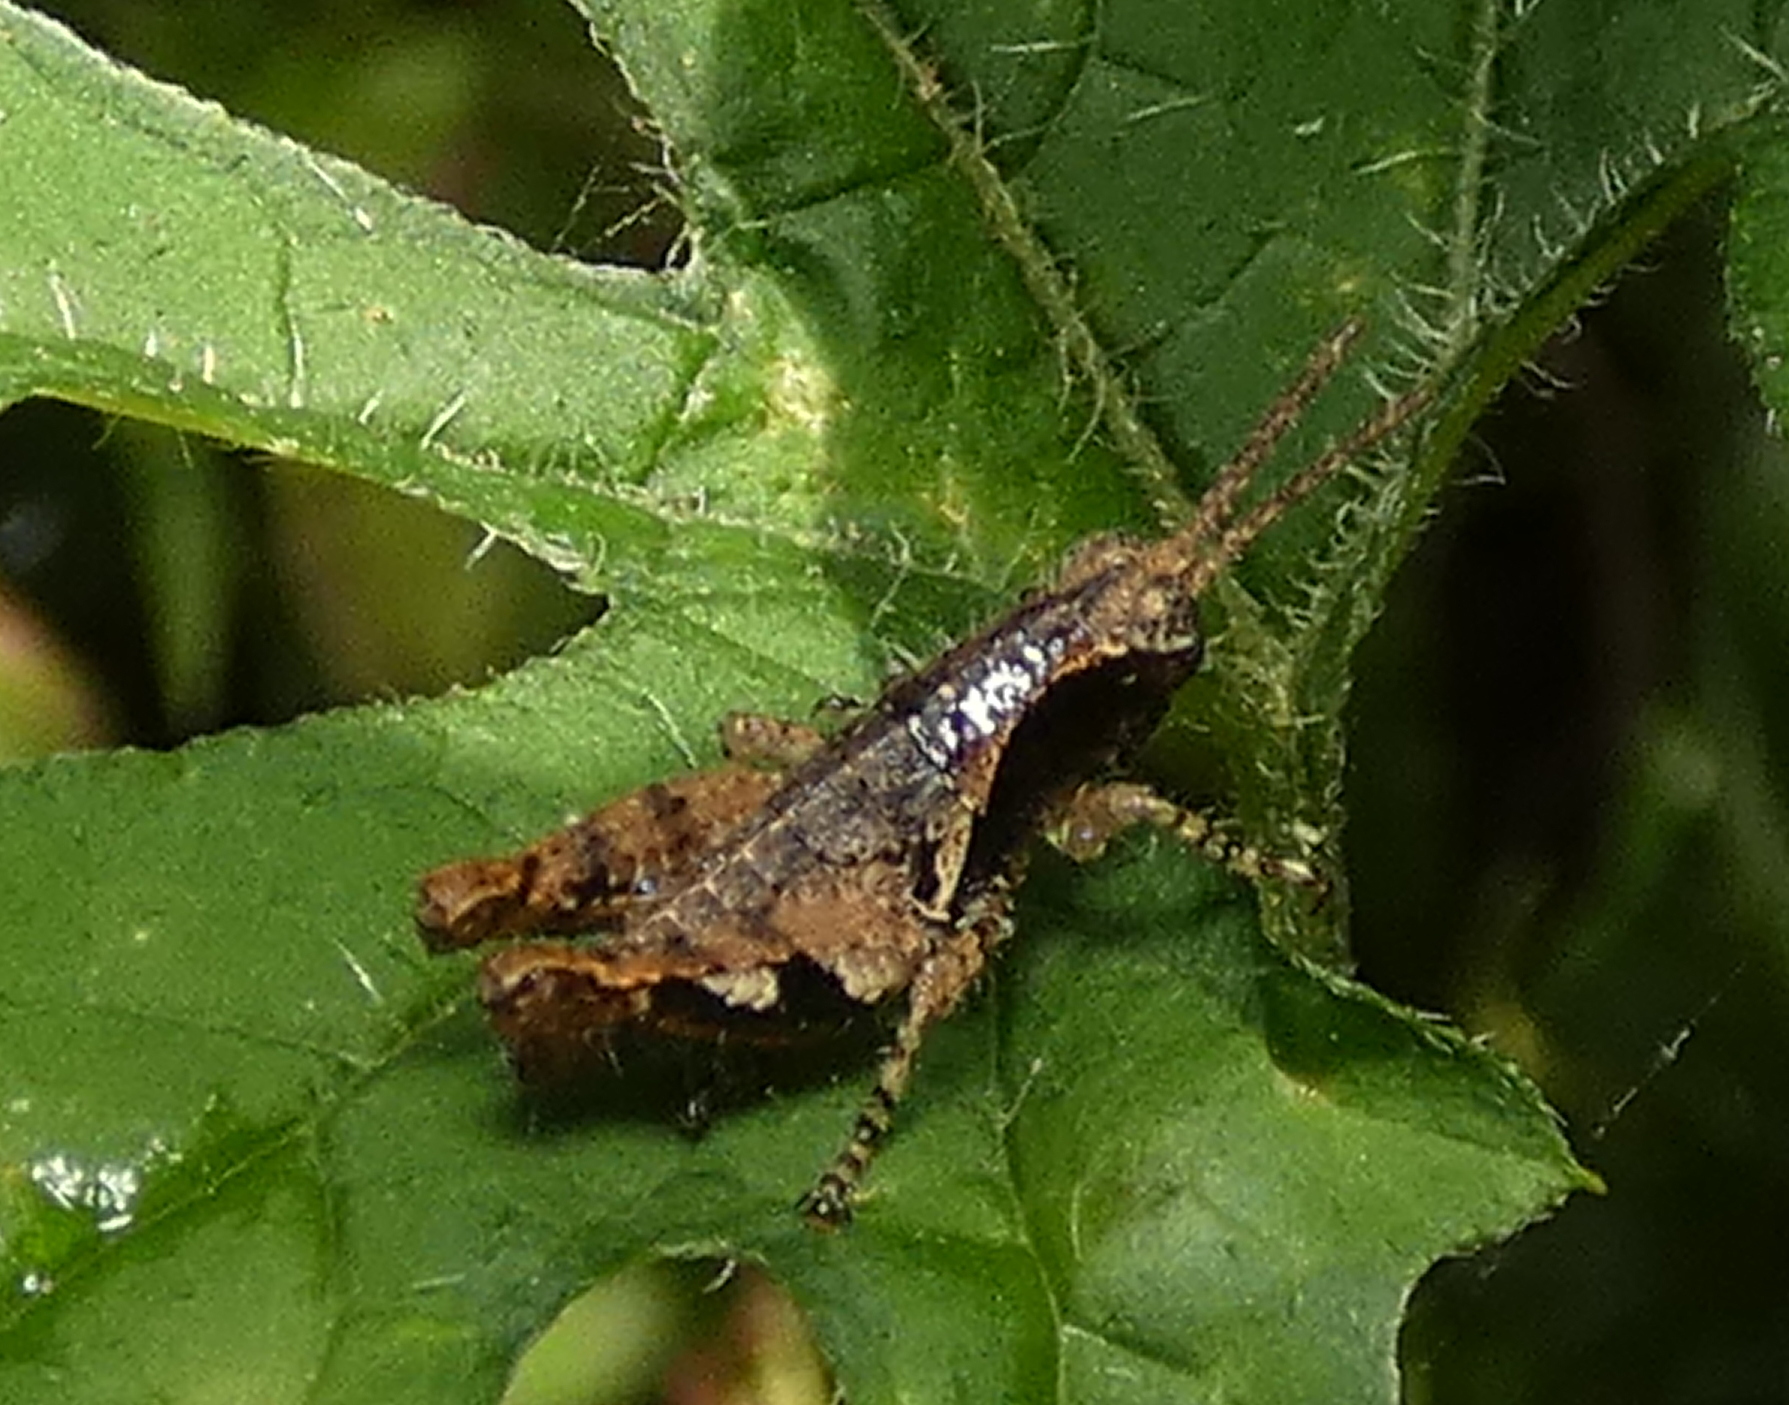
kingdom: Animalia
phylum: Arthropoda
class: Insecta
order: Orthoptera
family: Acrididae
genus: Eujivarus
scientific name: Eujivarus meridionalis
